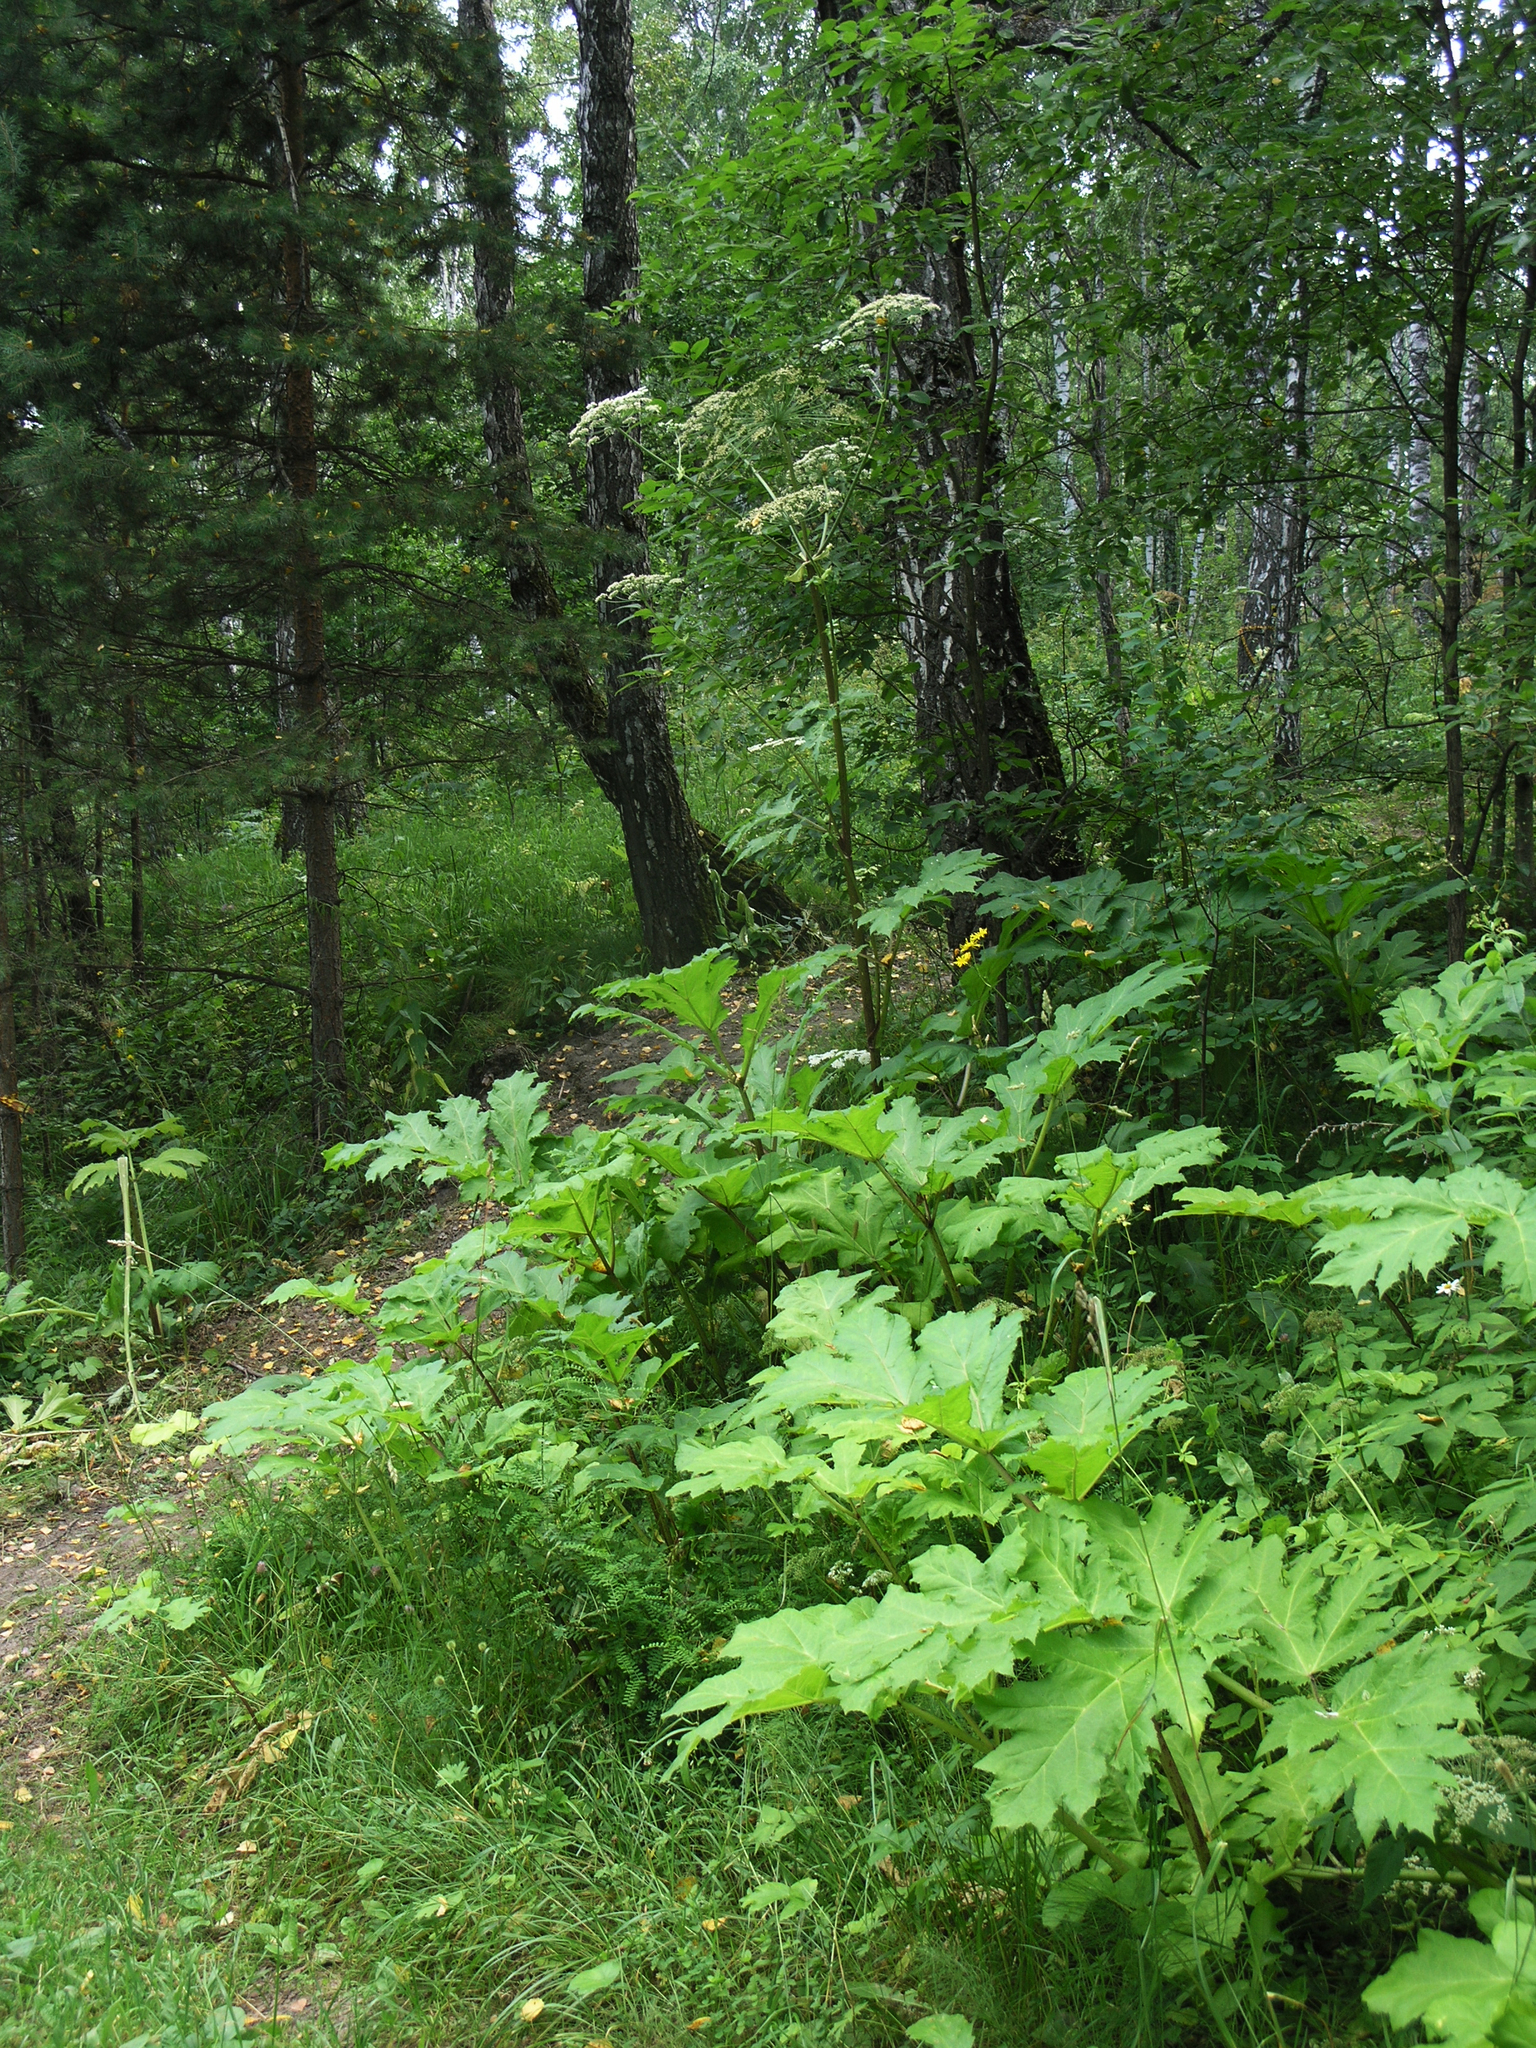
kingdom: Plantae
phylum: Tracheophyta
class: Magnoliopsida
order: Apiales
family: Apiaceae
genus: Heracleum
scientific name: Heracleum sosnowskyi
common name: Sosnowsky's hogweed
